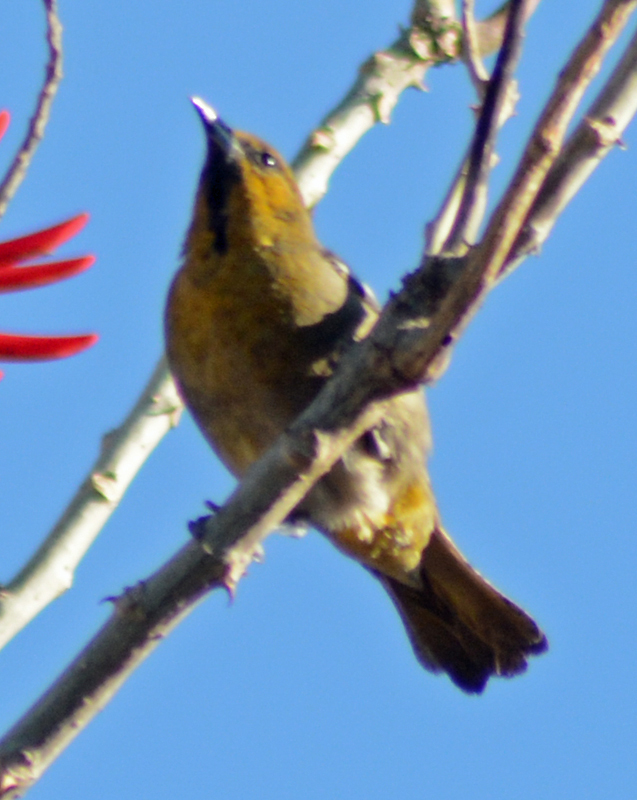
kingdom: Animalia
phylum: Chordata
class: Aves
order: Passeriformes
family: Icteridae
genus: Icterus
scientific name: Icterus abeillei
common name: Black-backed oriole
